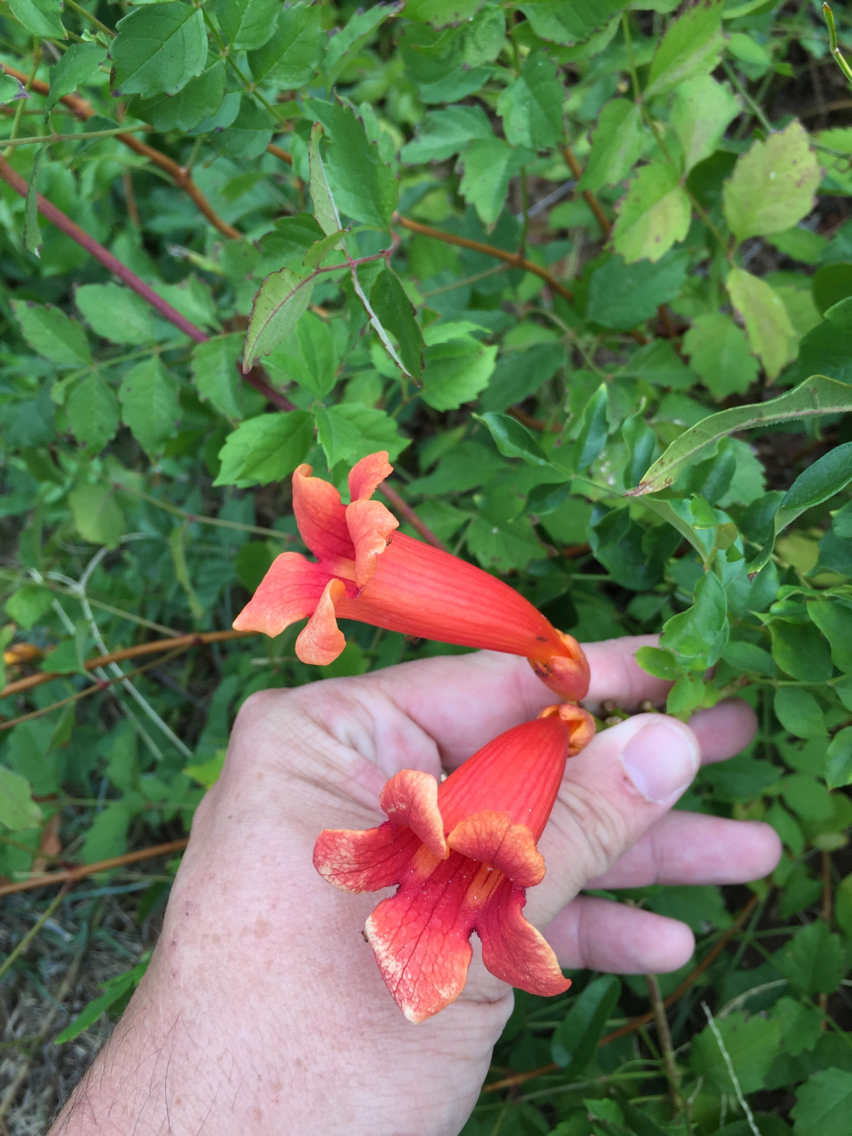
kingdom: Plantae
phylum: Tracheophyta
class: Magnoliopsida
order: Lamiales
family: Bignoniaceae
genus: Campsis
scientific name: Campsis radicans
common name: Trumpet-creeper
